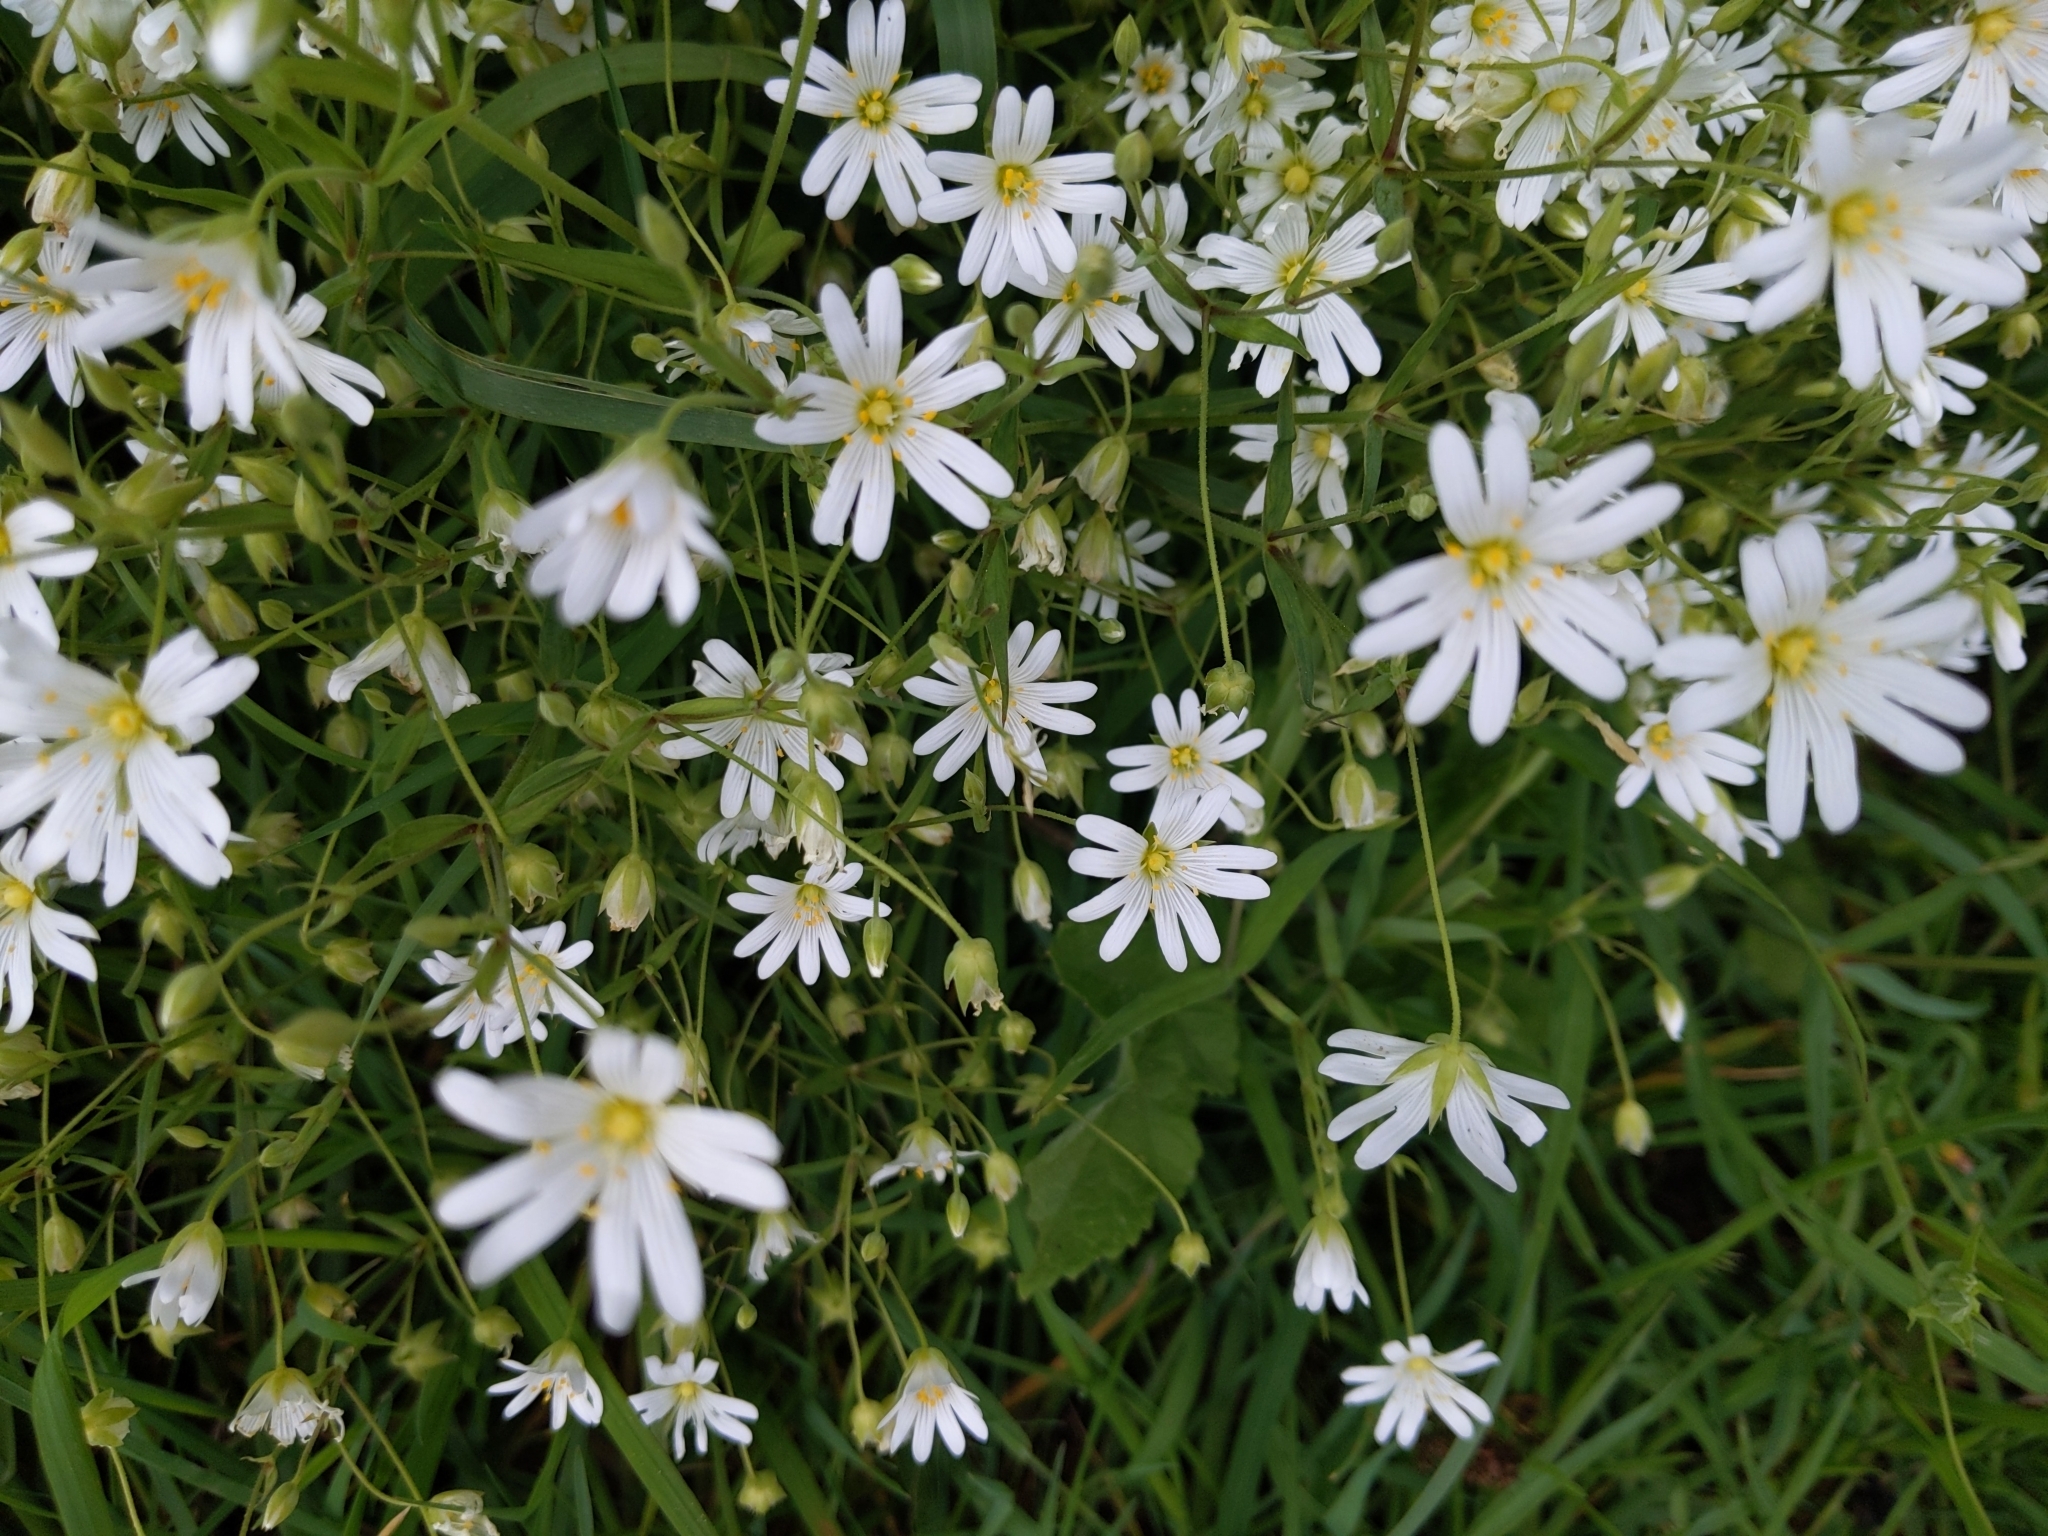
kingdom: Plantae
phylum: Tracheophyta
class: Magnoliopsida
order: Caryophyllales
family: Caryophyllaceae
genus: Rabelera
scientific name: Rabelera holostea
